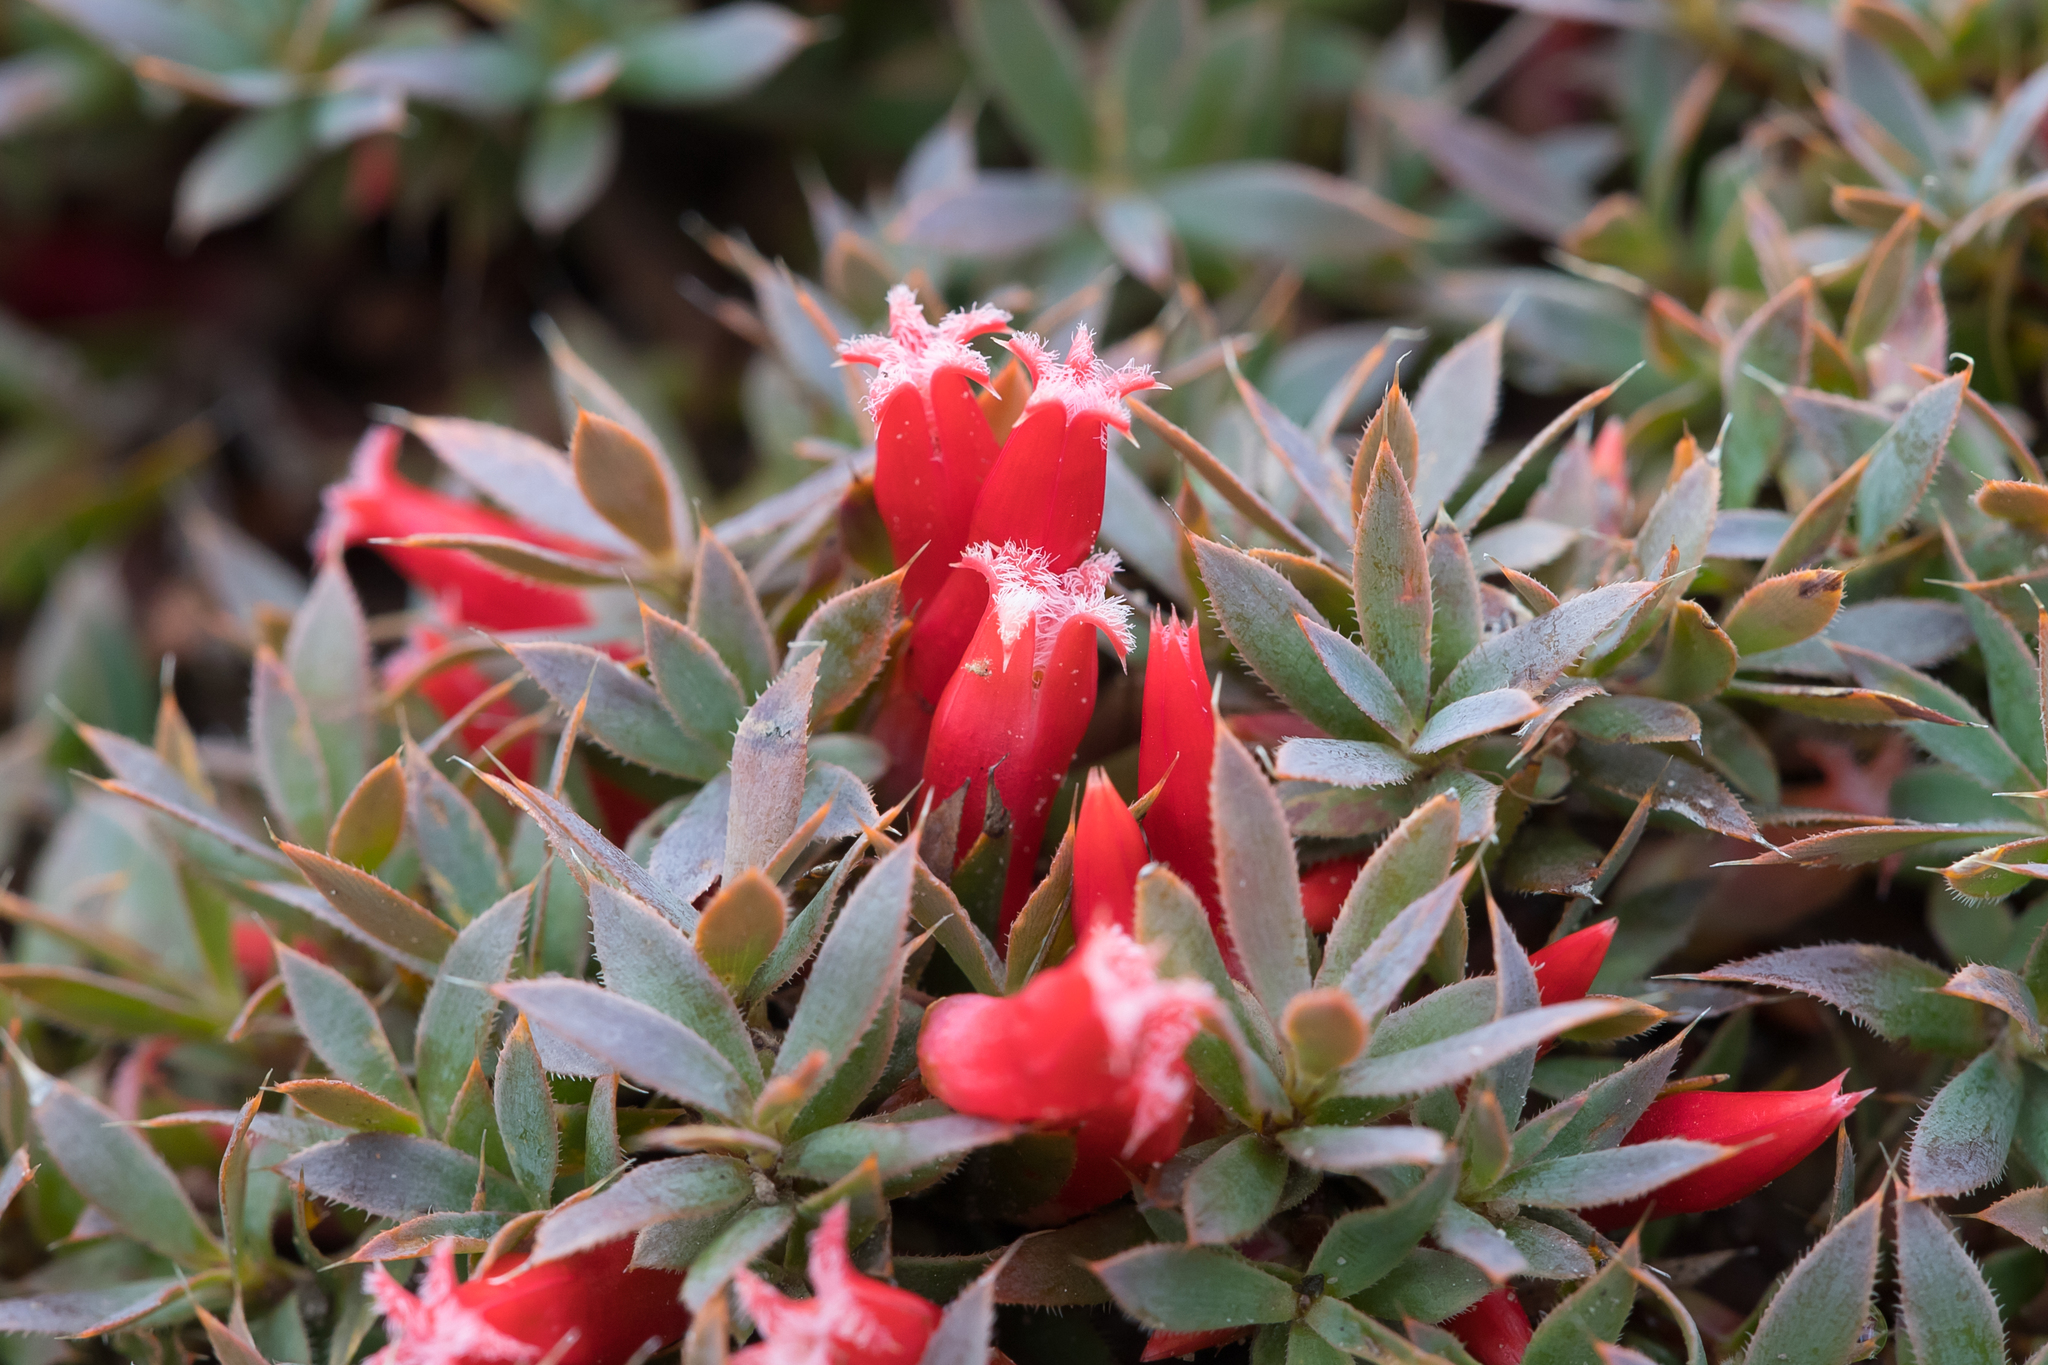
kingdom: Plantae
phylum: Tracheophyta
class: Magnoliopsida
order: Ericales
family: Ericaceae
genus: Styphelia
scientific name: Styphelia humifusa
